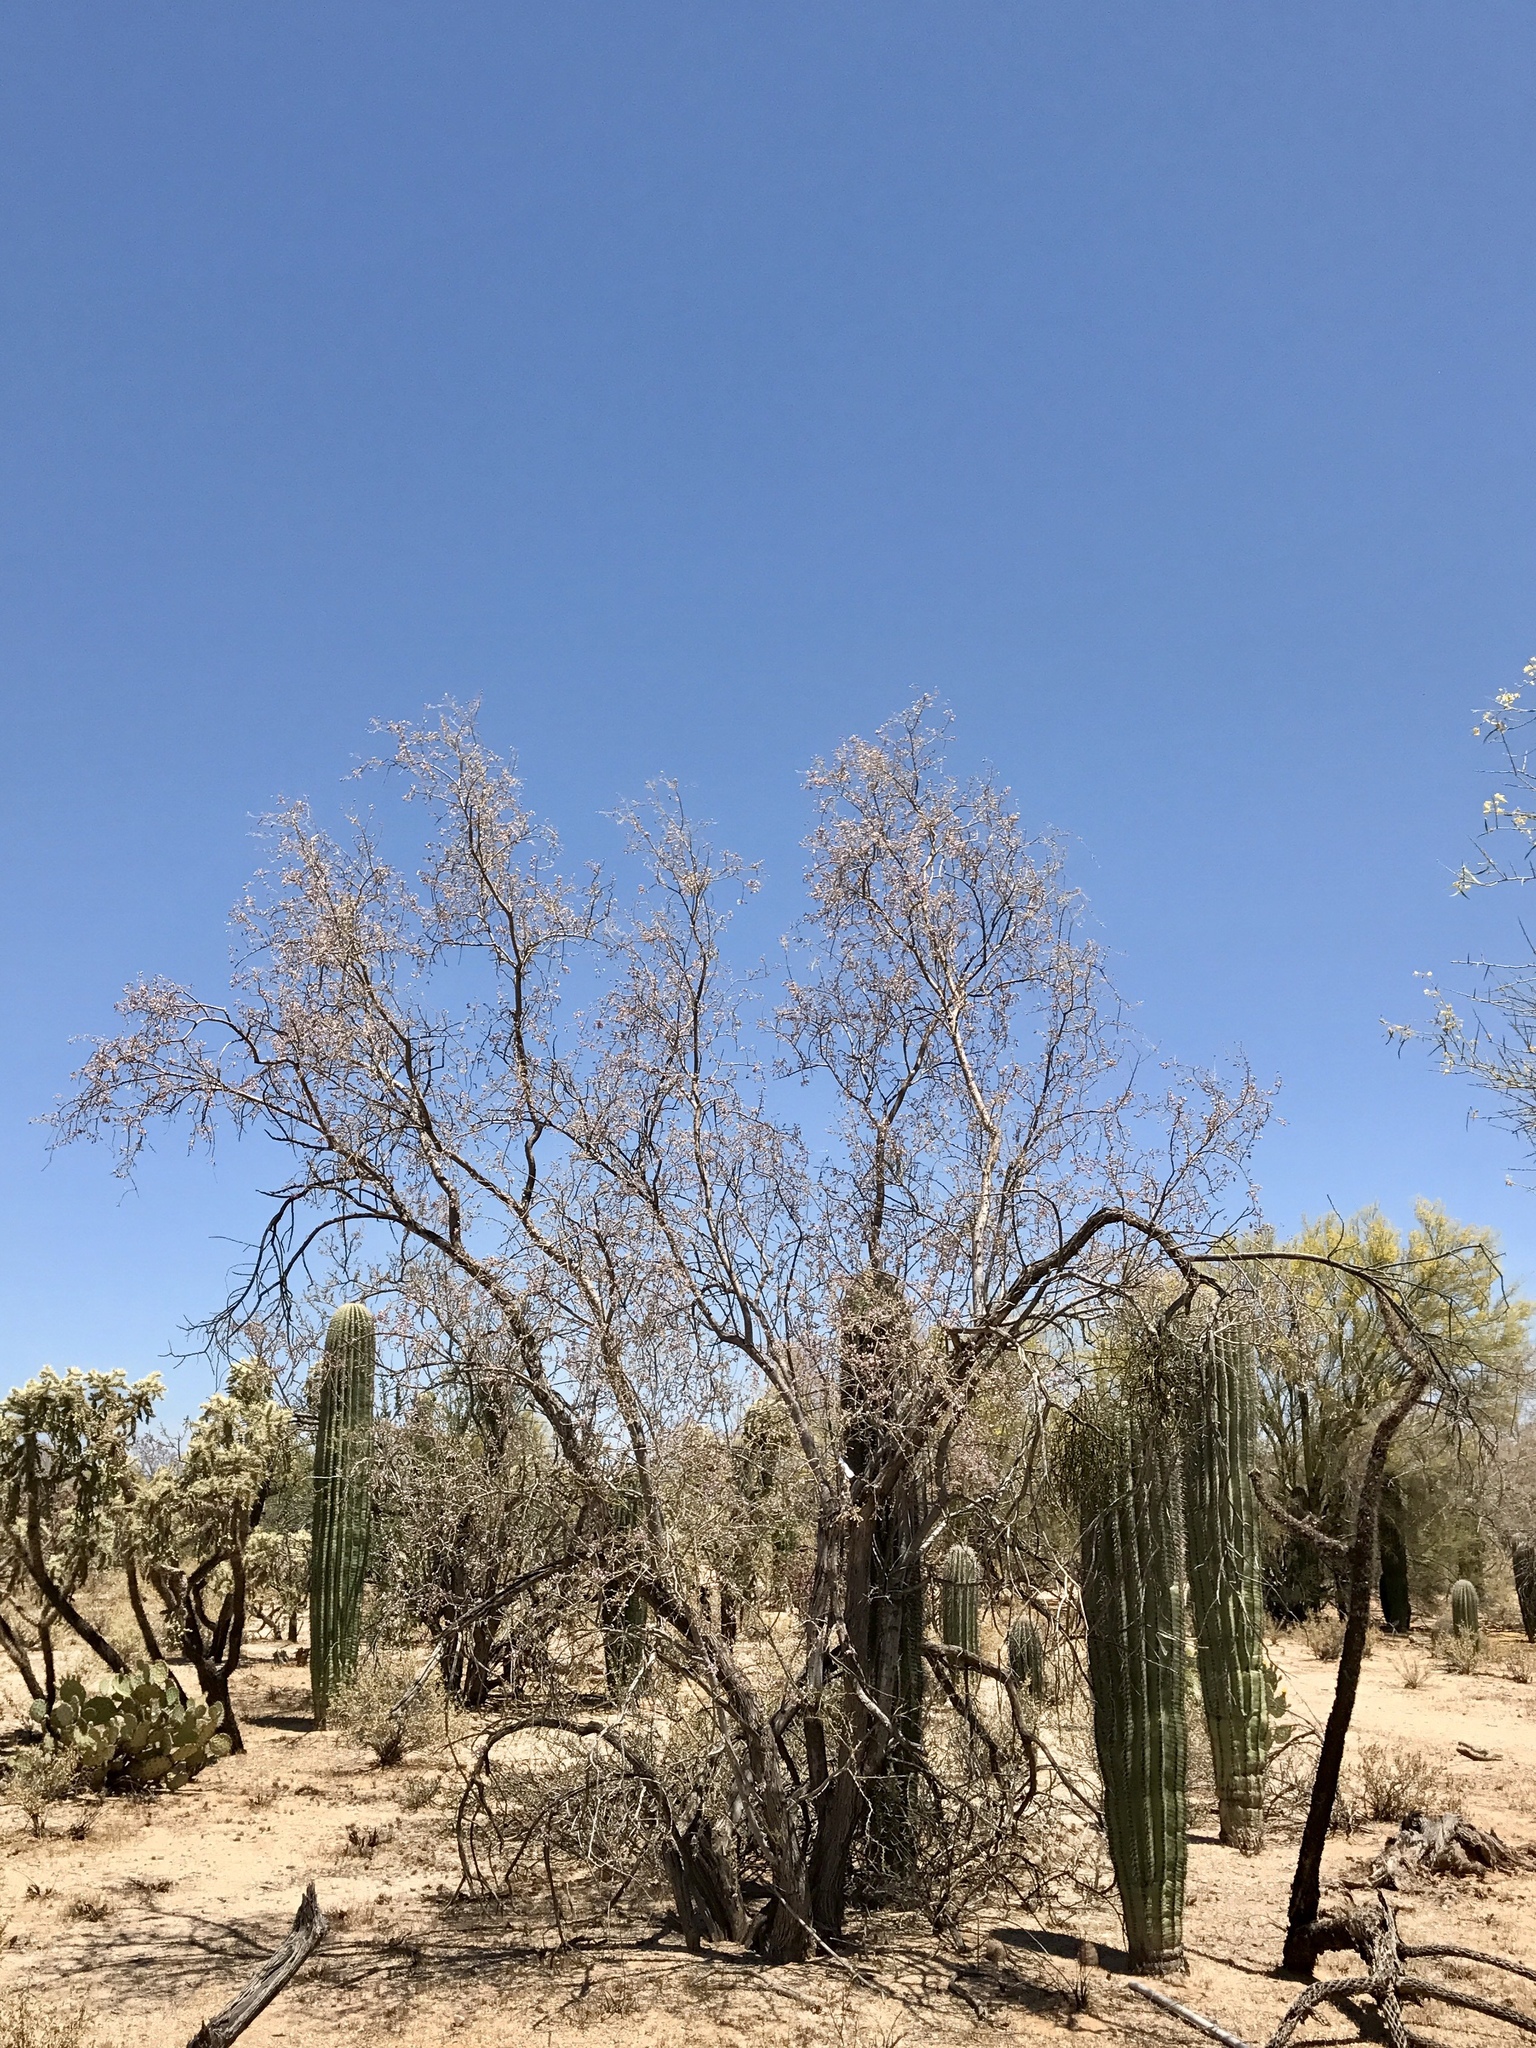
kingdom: Plantae
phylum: Tracheophyta
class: Magnoliopsida
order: Fabales
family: Fabaceae
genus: Olneya
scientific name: Olneya tesota
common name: Desert ironwood
